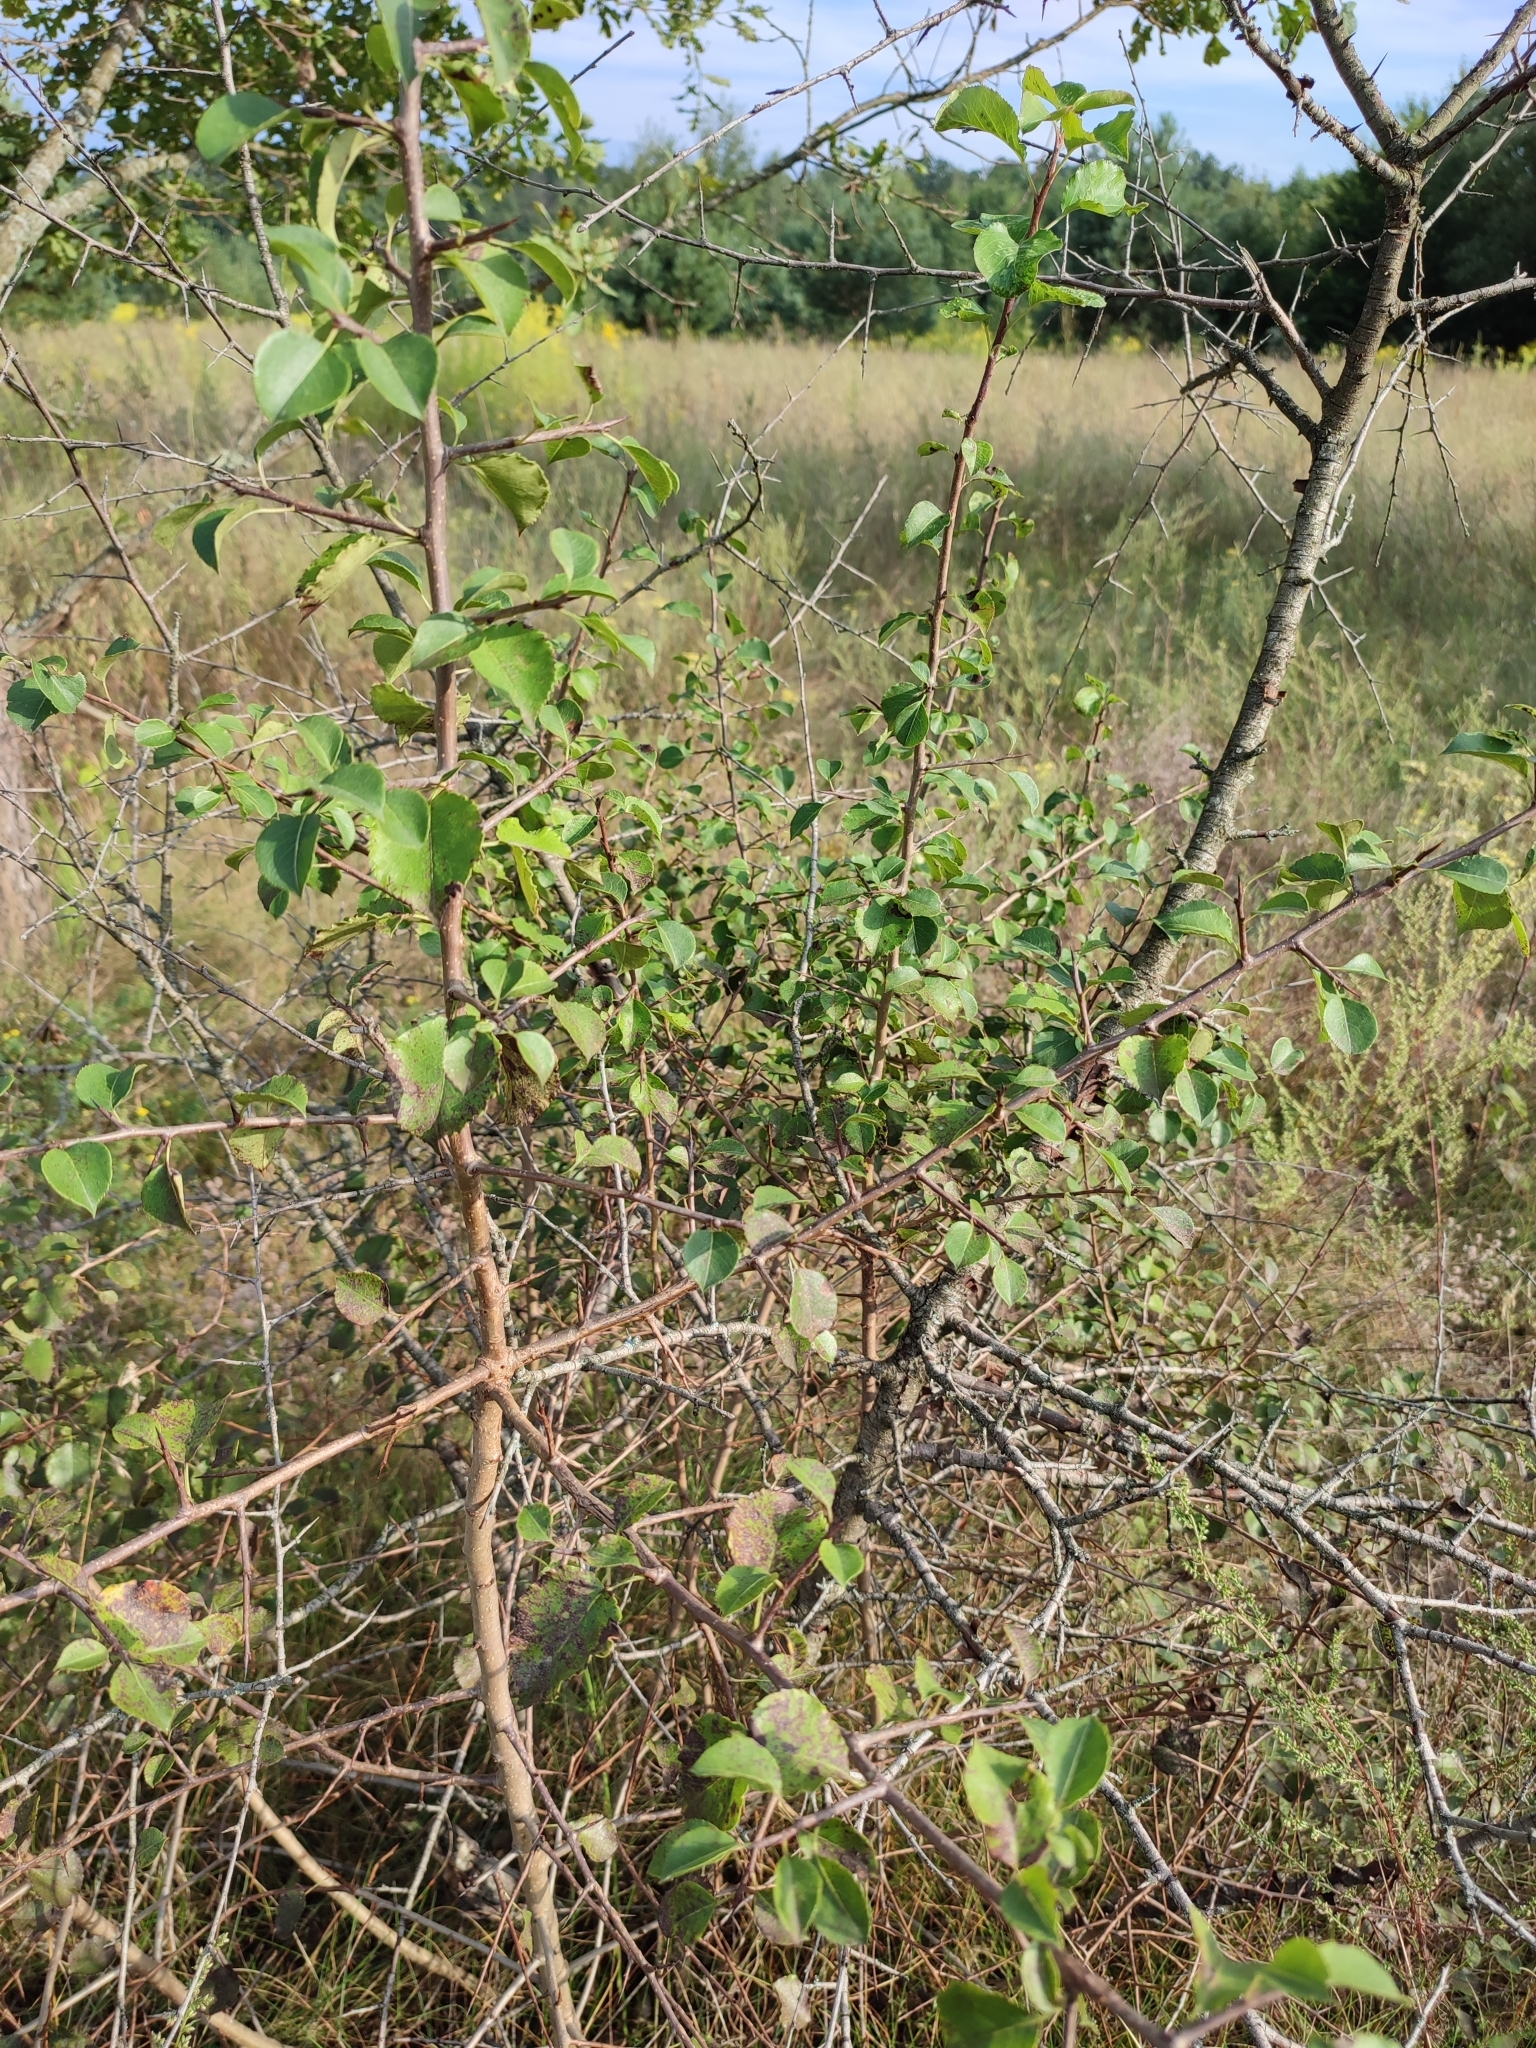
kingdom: Plantae
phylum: Tracheophyta
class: Magnoliopsida
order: Rosales
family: Rosaceae
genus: Pyrus
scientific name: Pyrus communis
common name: Pear
